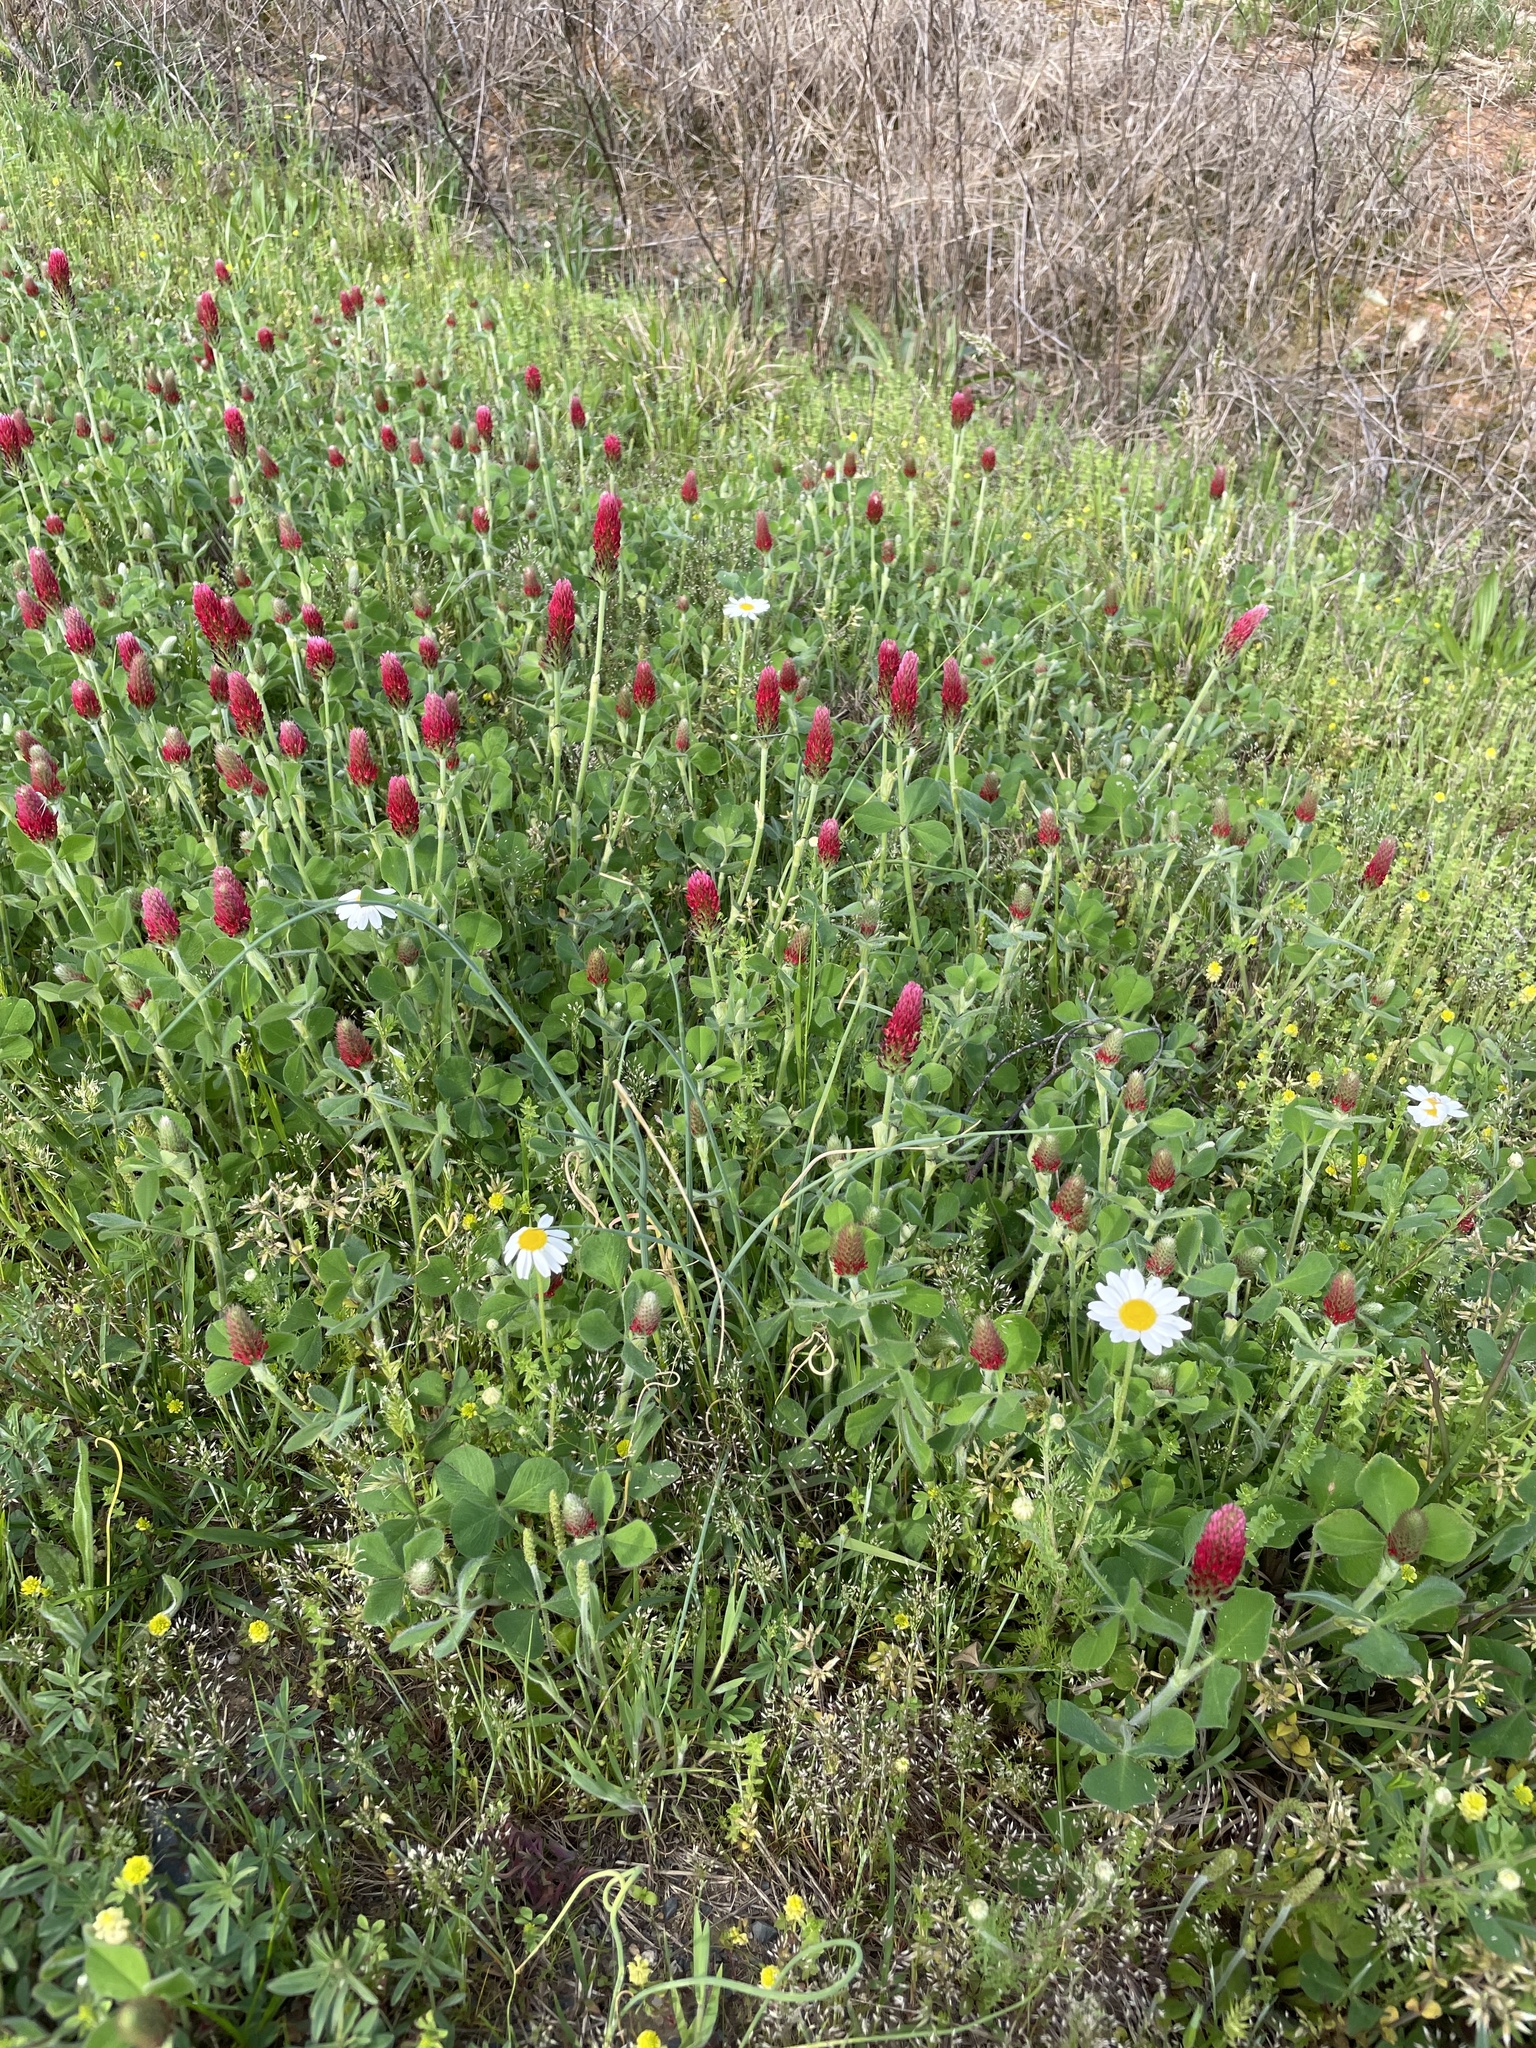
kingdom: Plantae
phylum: Tracheophyta
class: Magnoliopsida
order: Fabales
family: Fabaceae
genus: Trifolium
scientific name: Trifolium incarnatum
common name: Crimson clover
